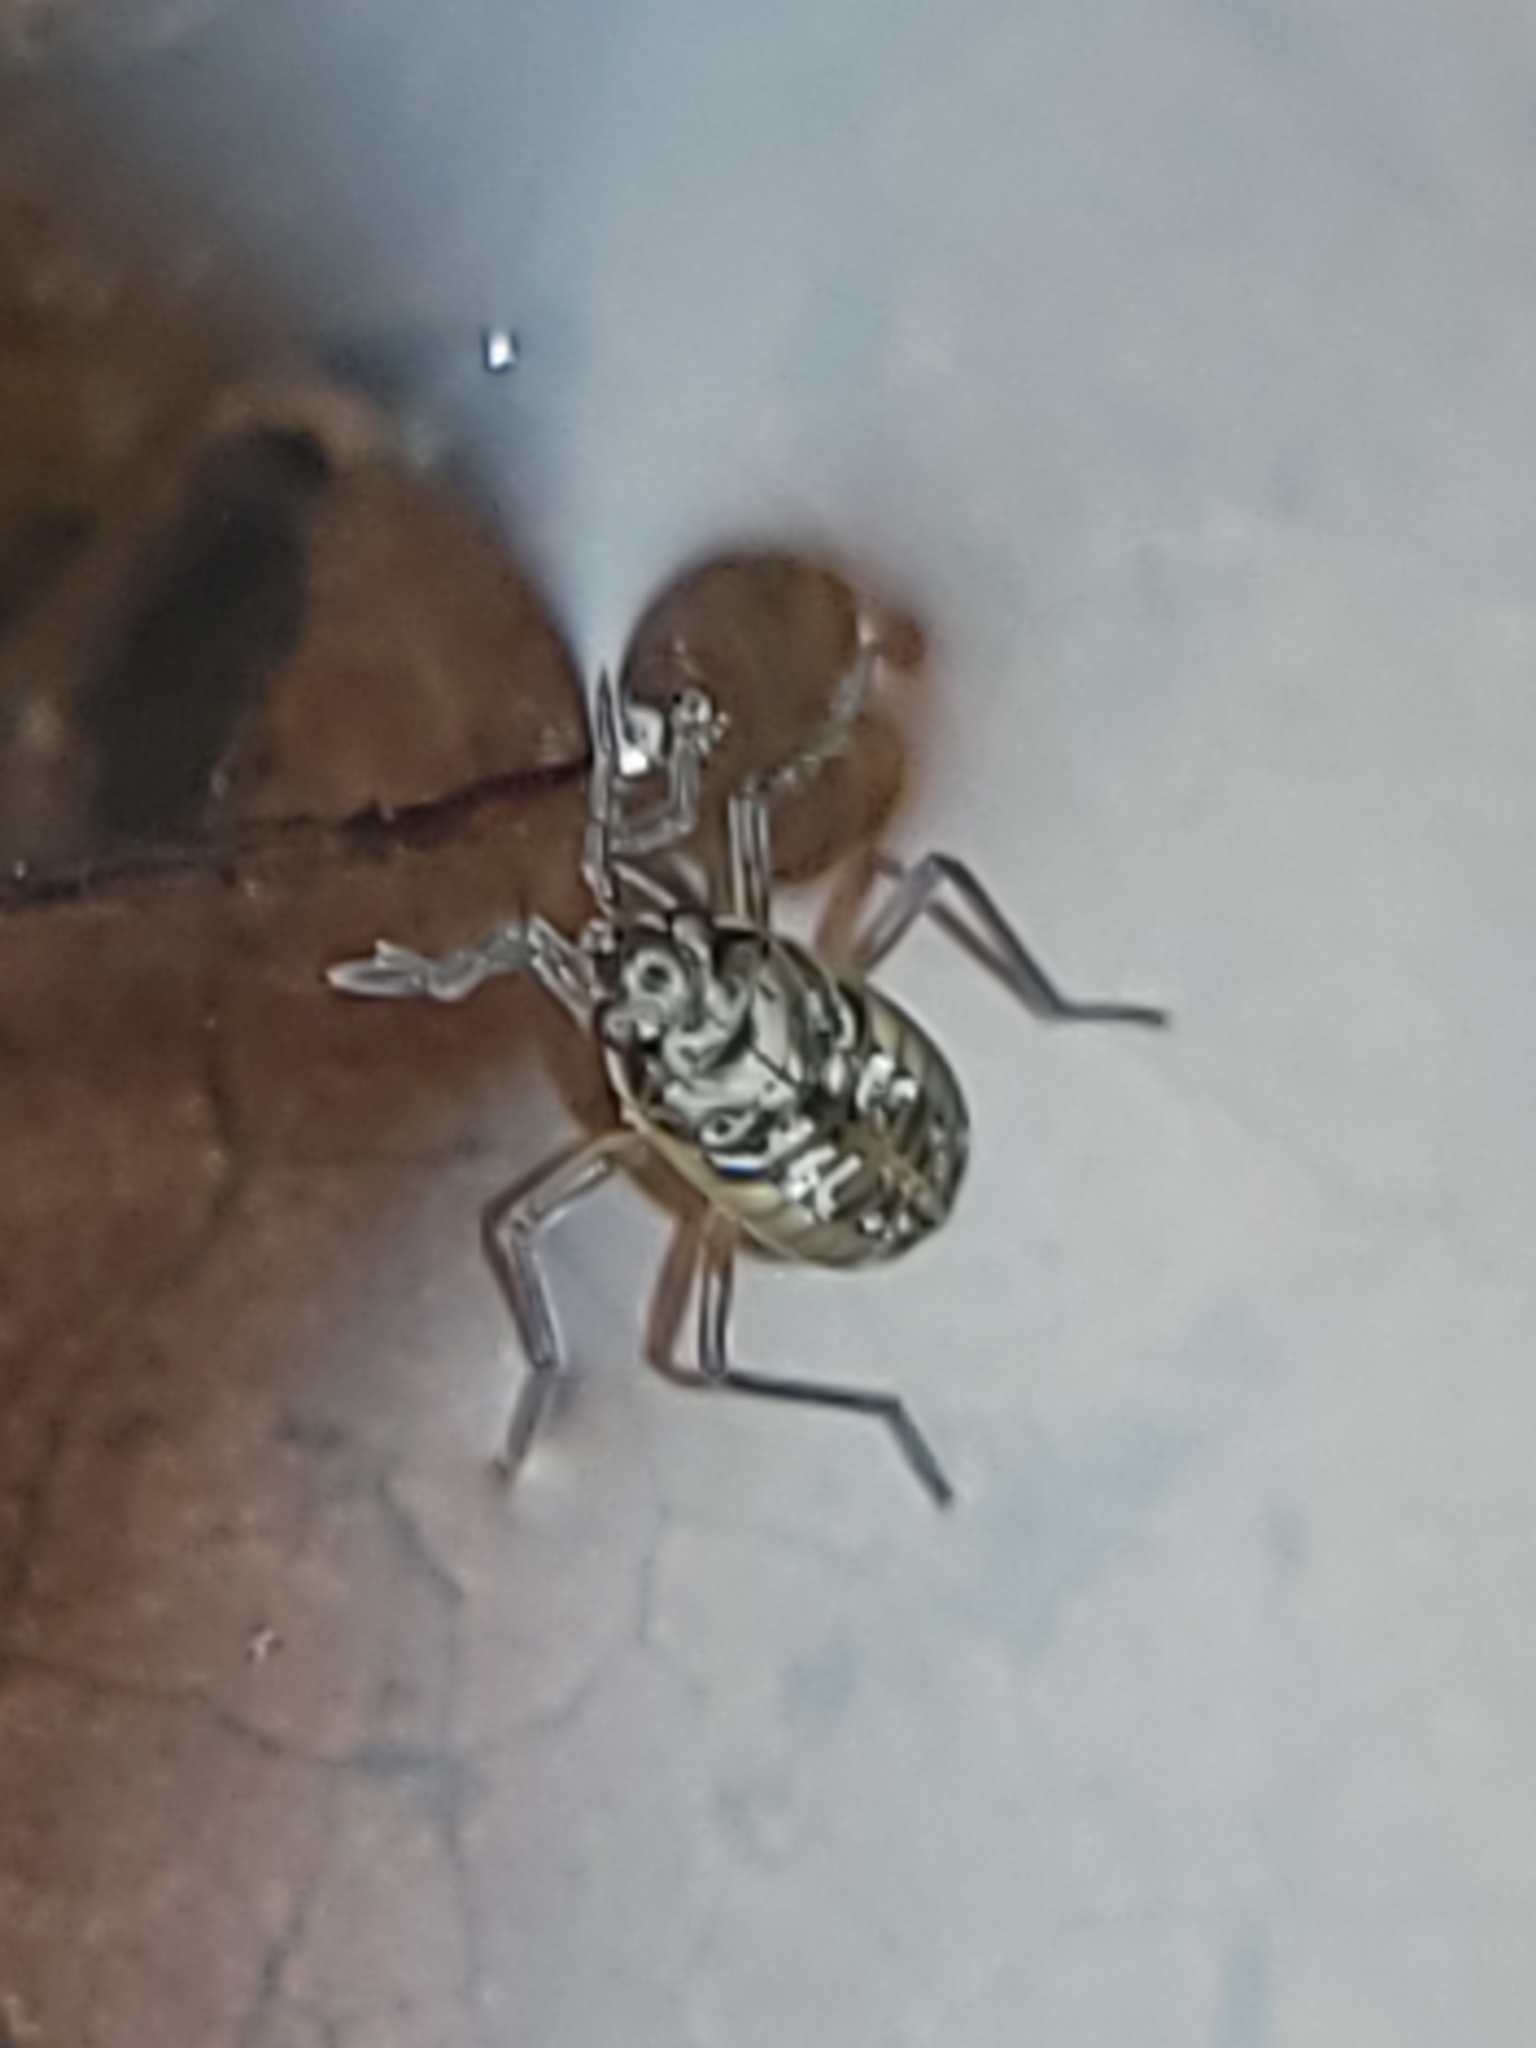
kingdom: Animalia
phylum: Arthropoda
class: Insecta
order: Hemiptera
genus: Kirkaldya
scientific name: Kirkaldya
